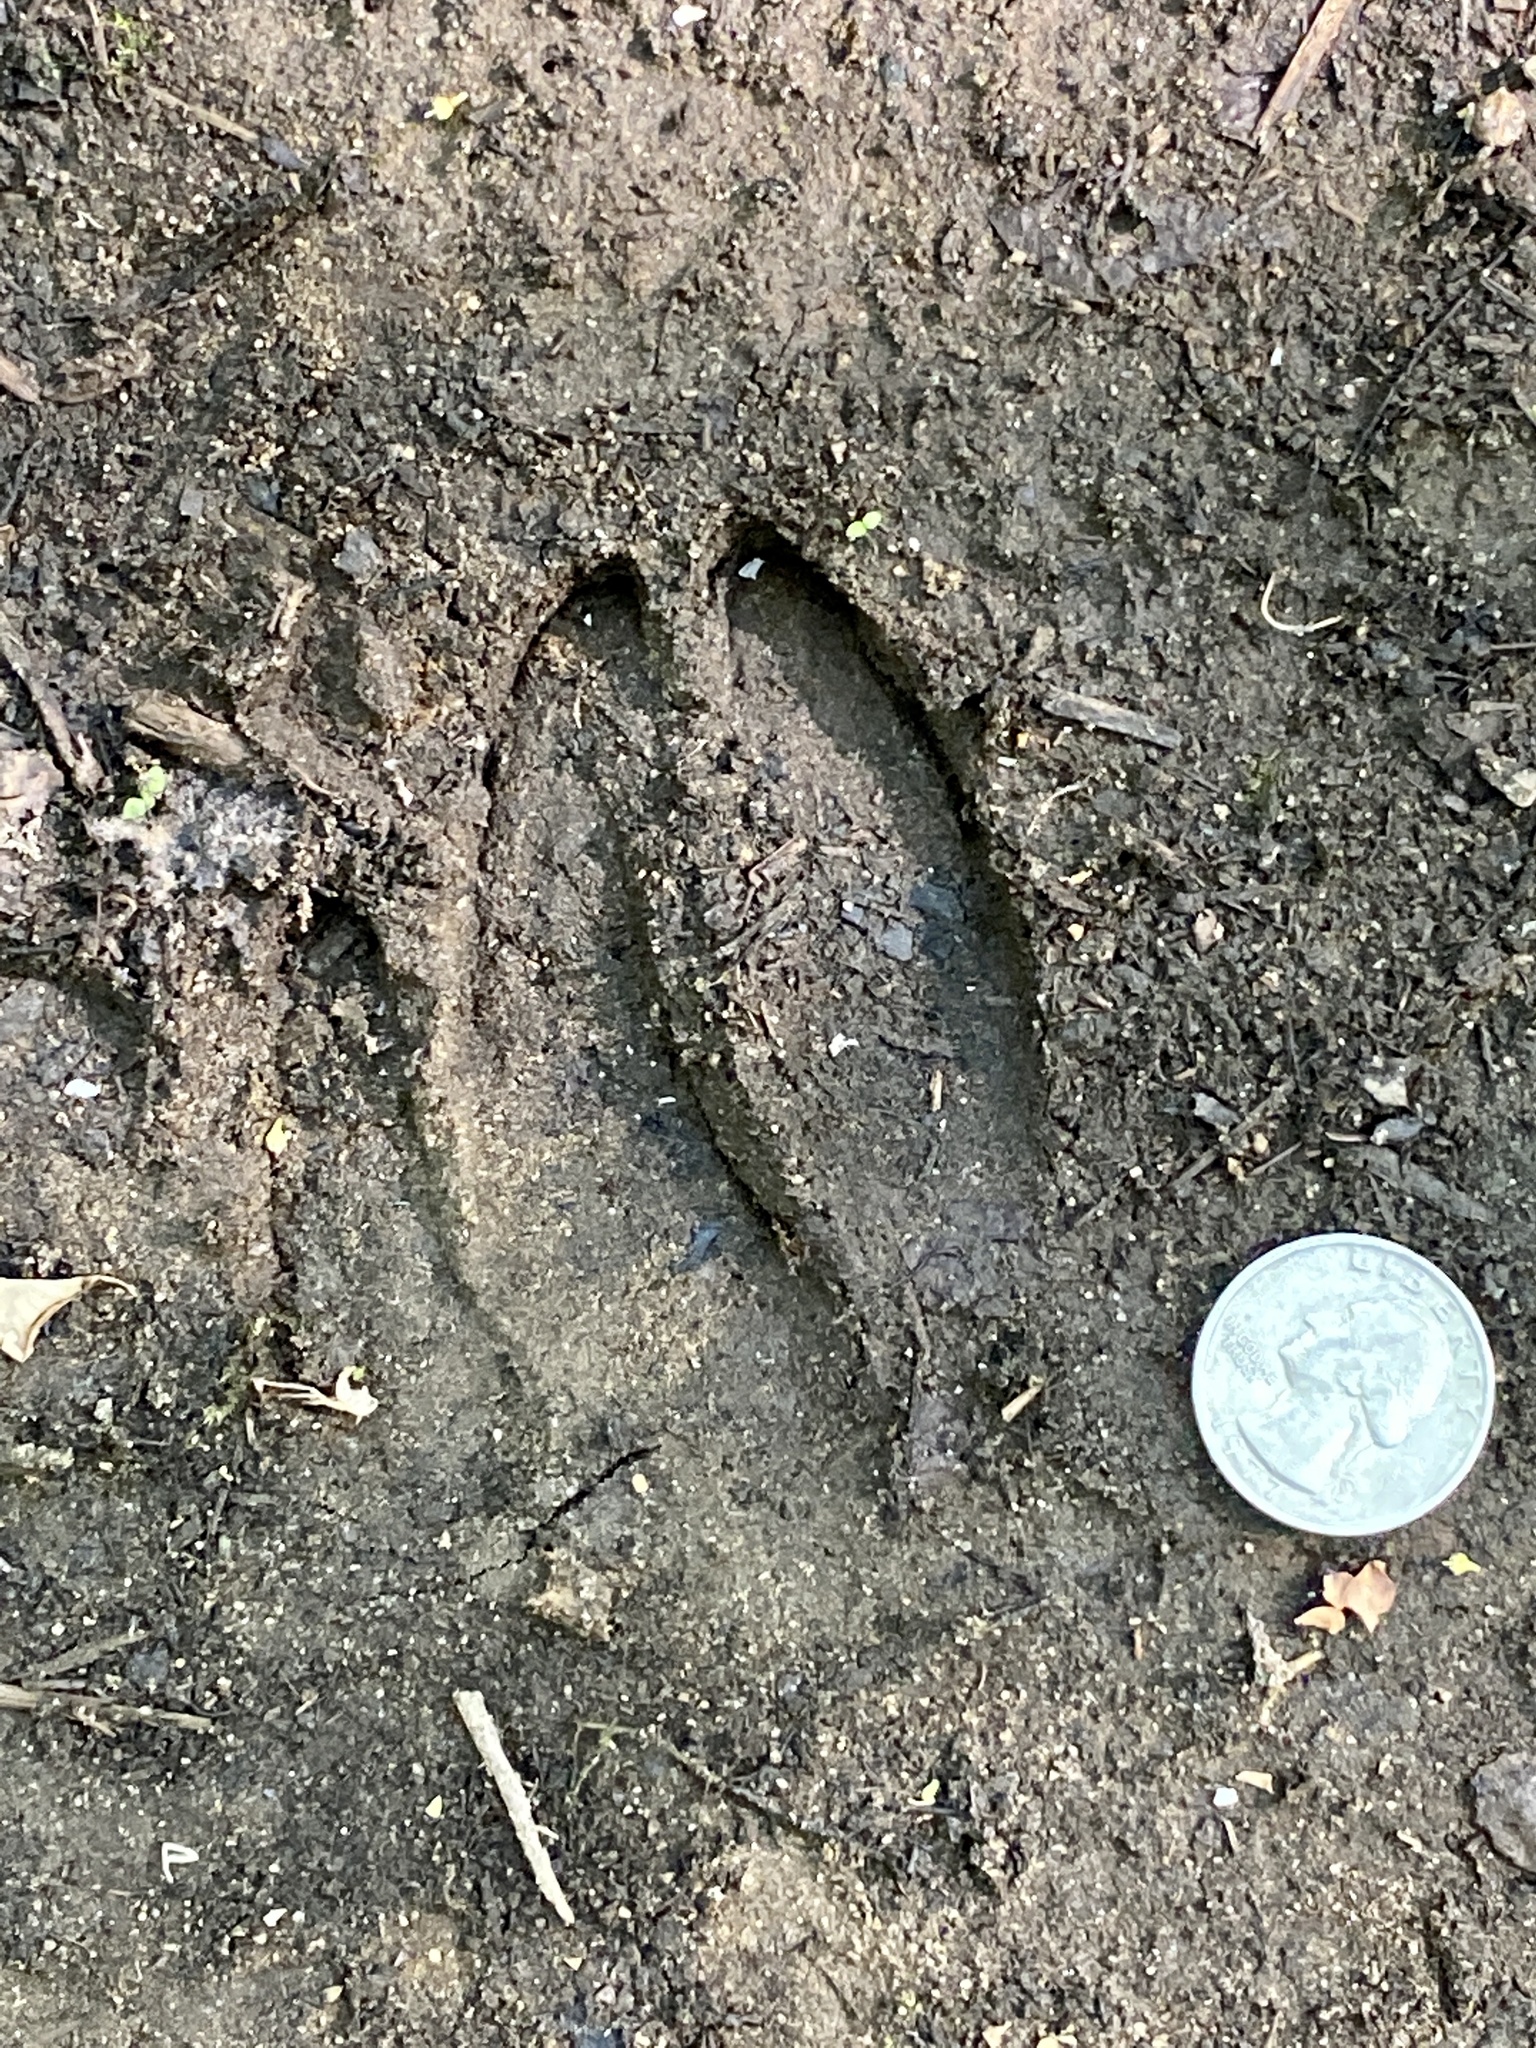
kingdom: Animalia
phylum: Chordata
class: Mammalia
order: Artiodactyla
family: Cervidae
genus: Odocoileus
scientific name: Odocoileus virginianus
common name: White-tailed deer
